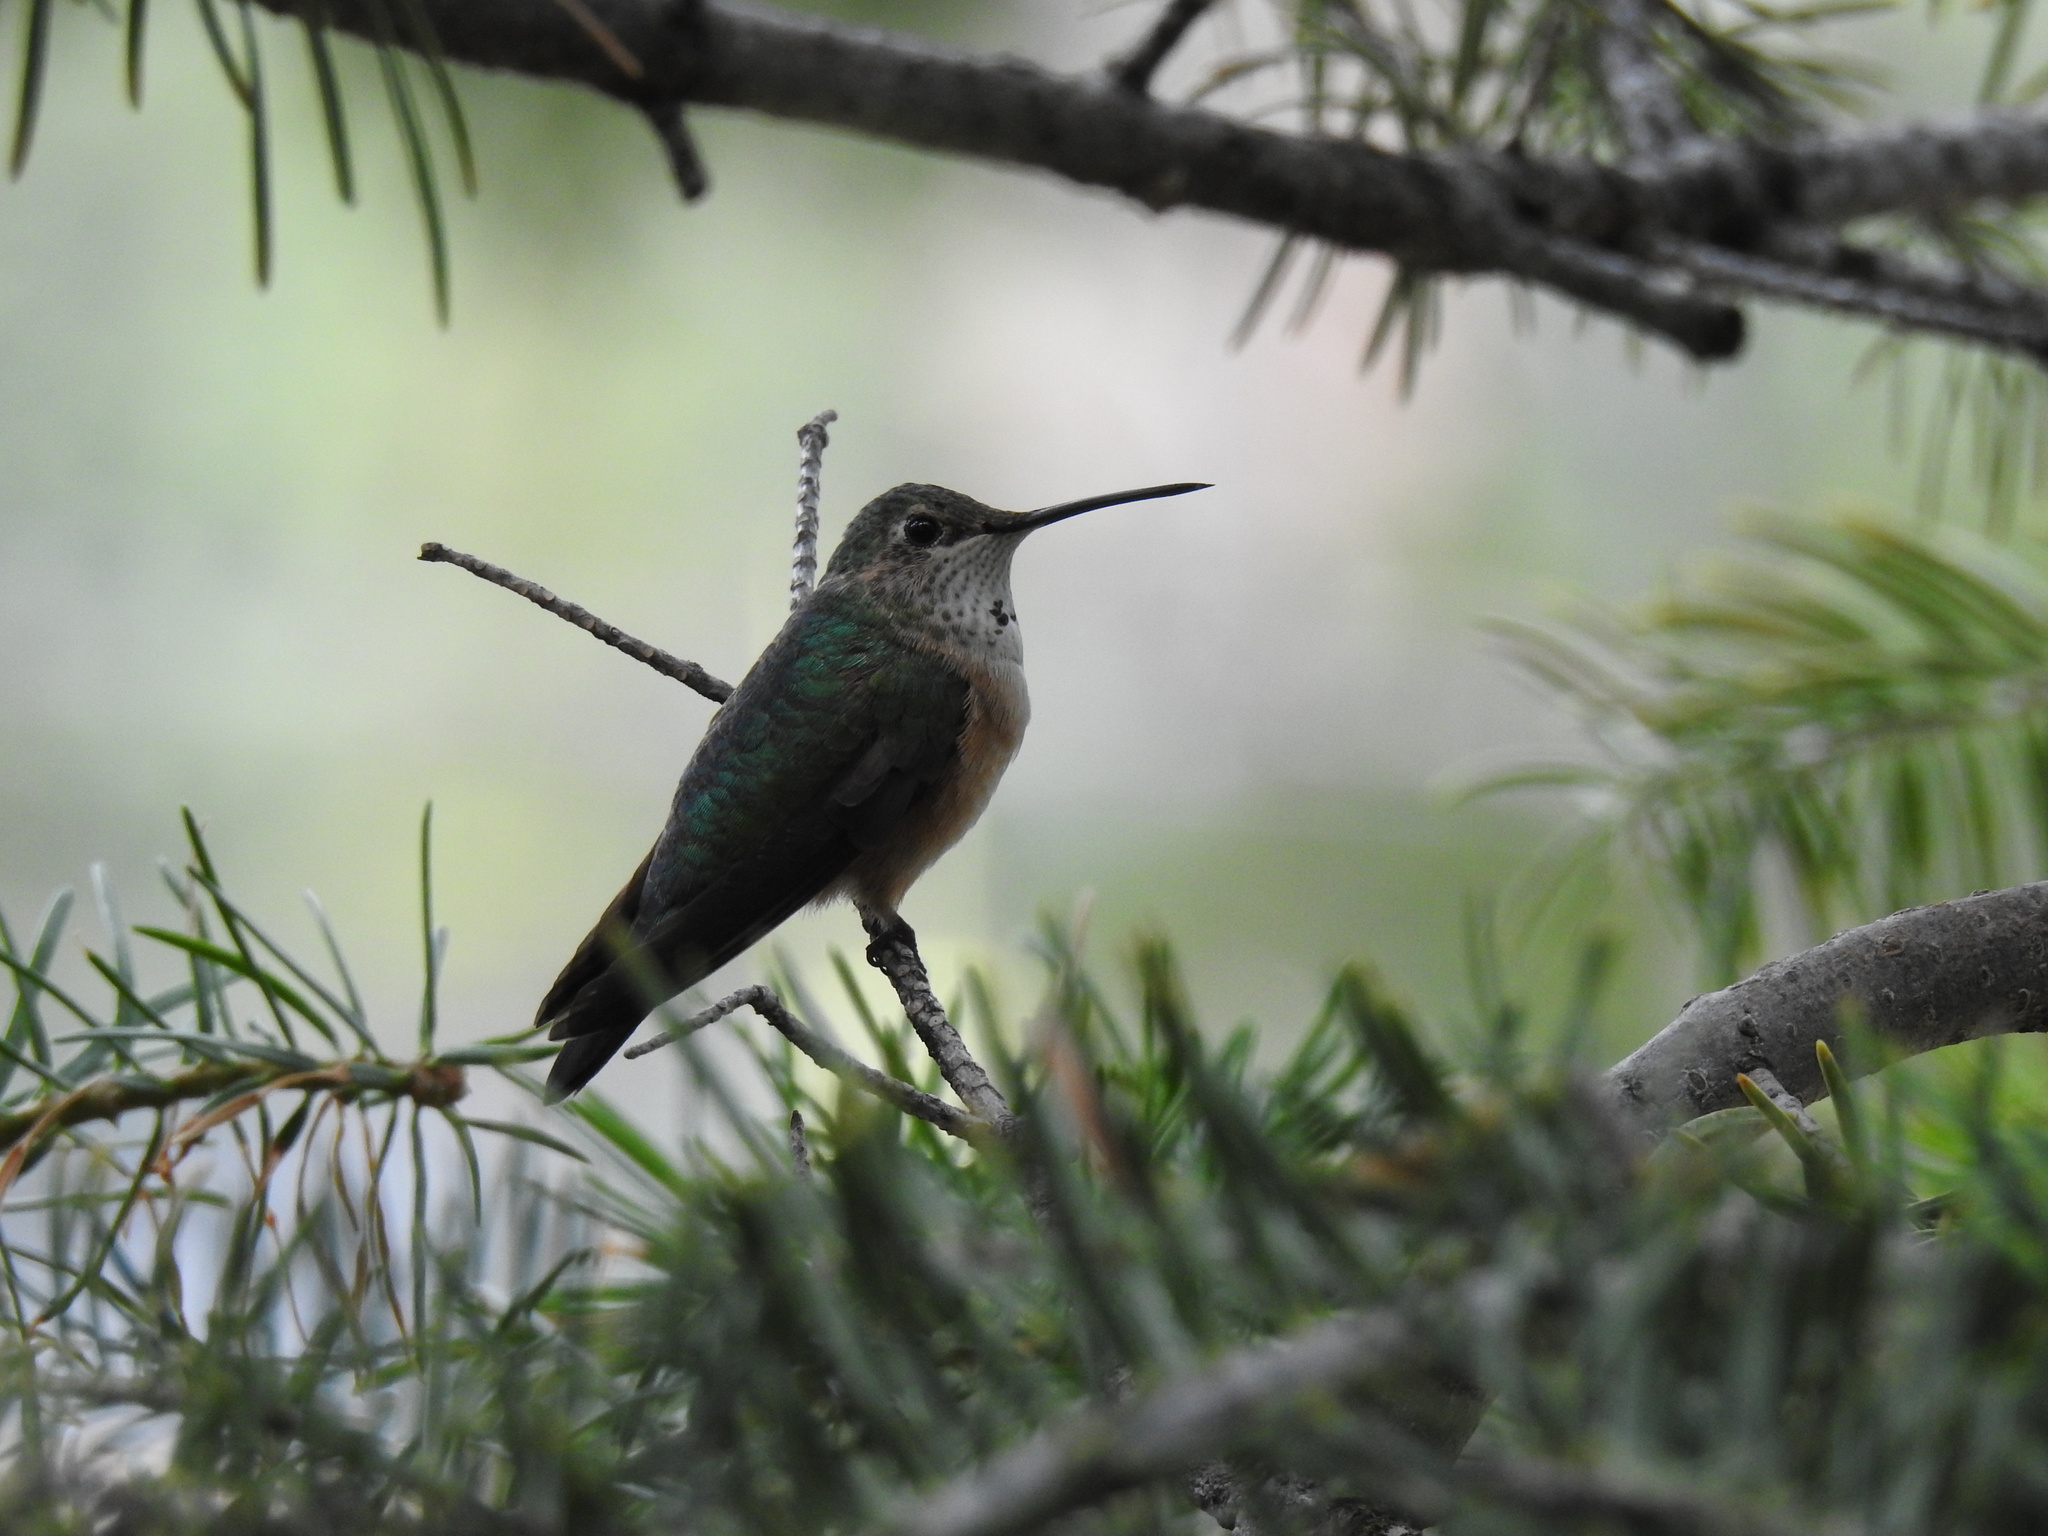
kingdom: Animalia
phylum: Chordata
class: Aves
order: Apodiformes
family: Trochilidae
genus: Selasphorus
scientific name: Selasphorus platycercus
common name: Broad-tailed hummingbird
